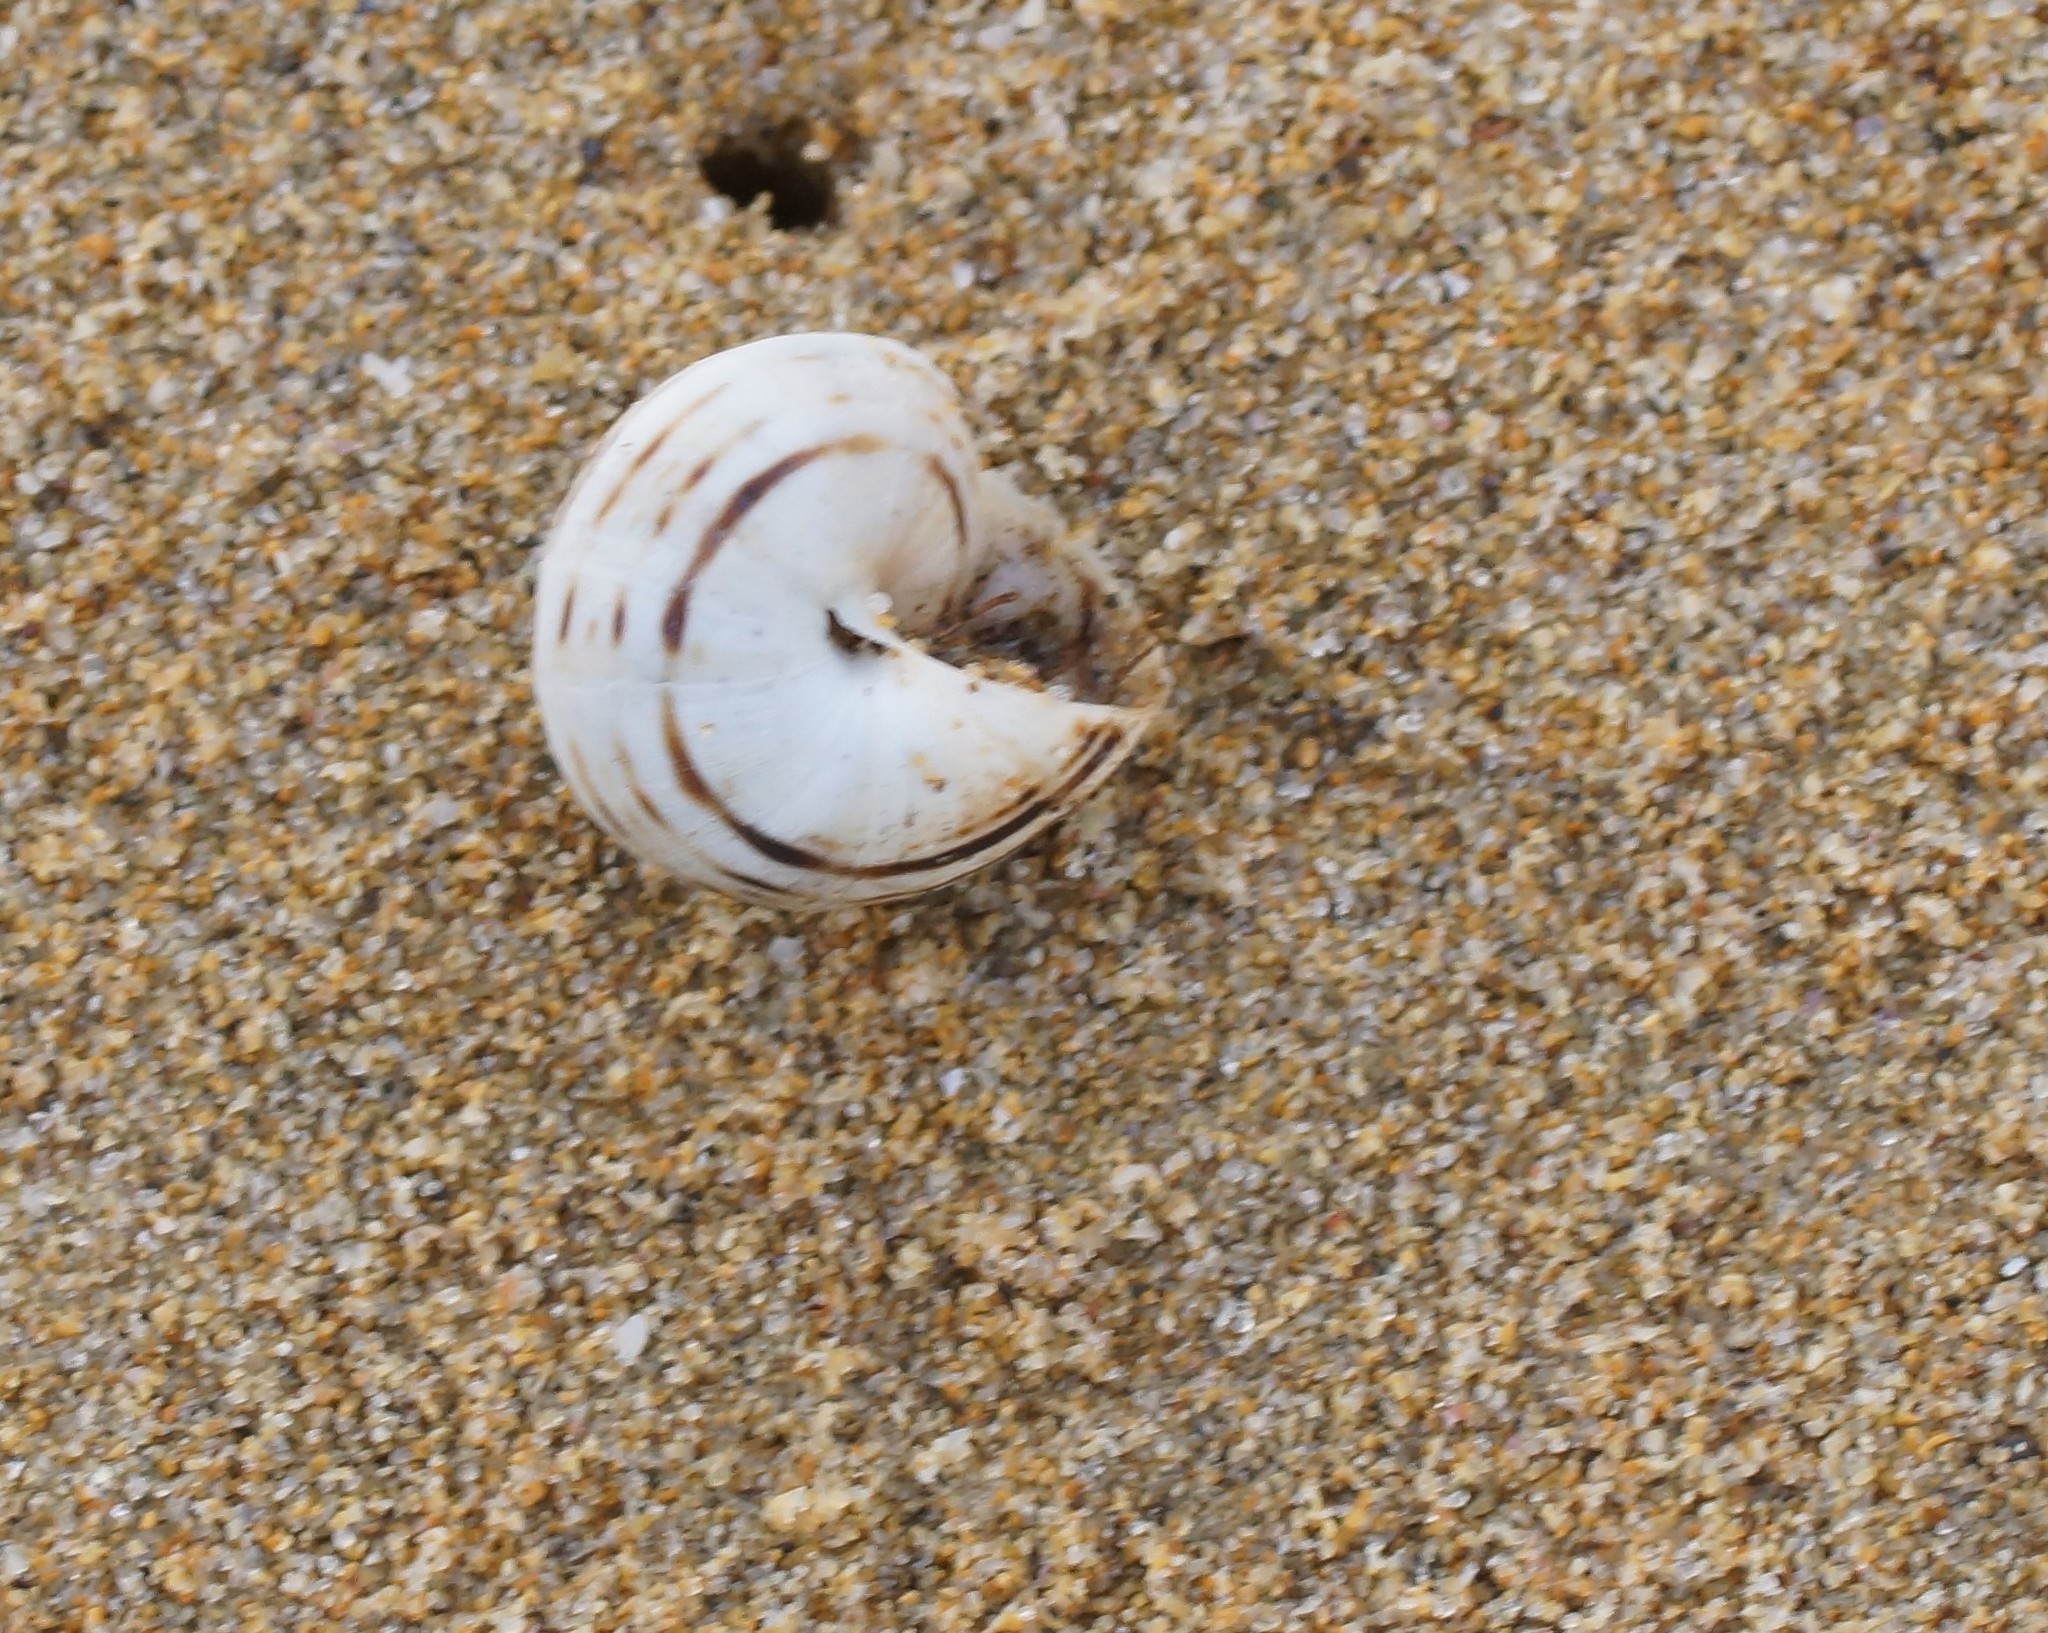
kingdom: Animalia
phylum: Mollusca
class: Gastropoda
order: Stylommatophora
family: Helicidae
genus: Theba
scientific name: Theba pisana
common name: White snail
